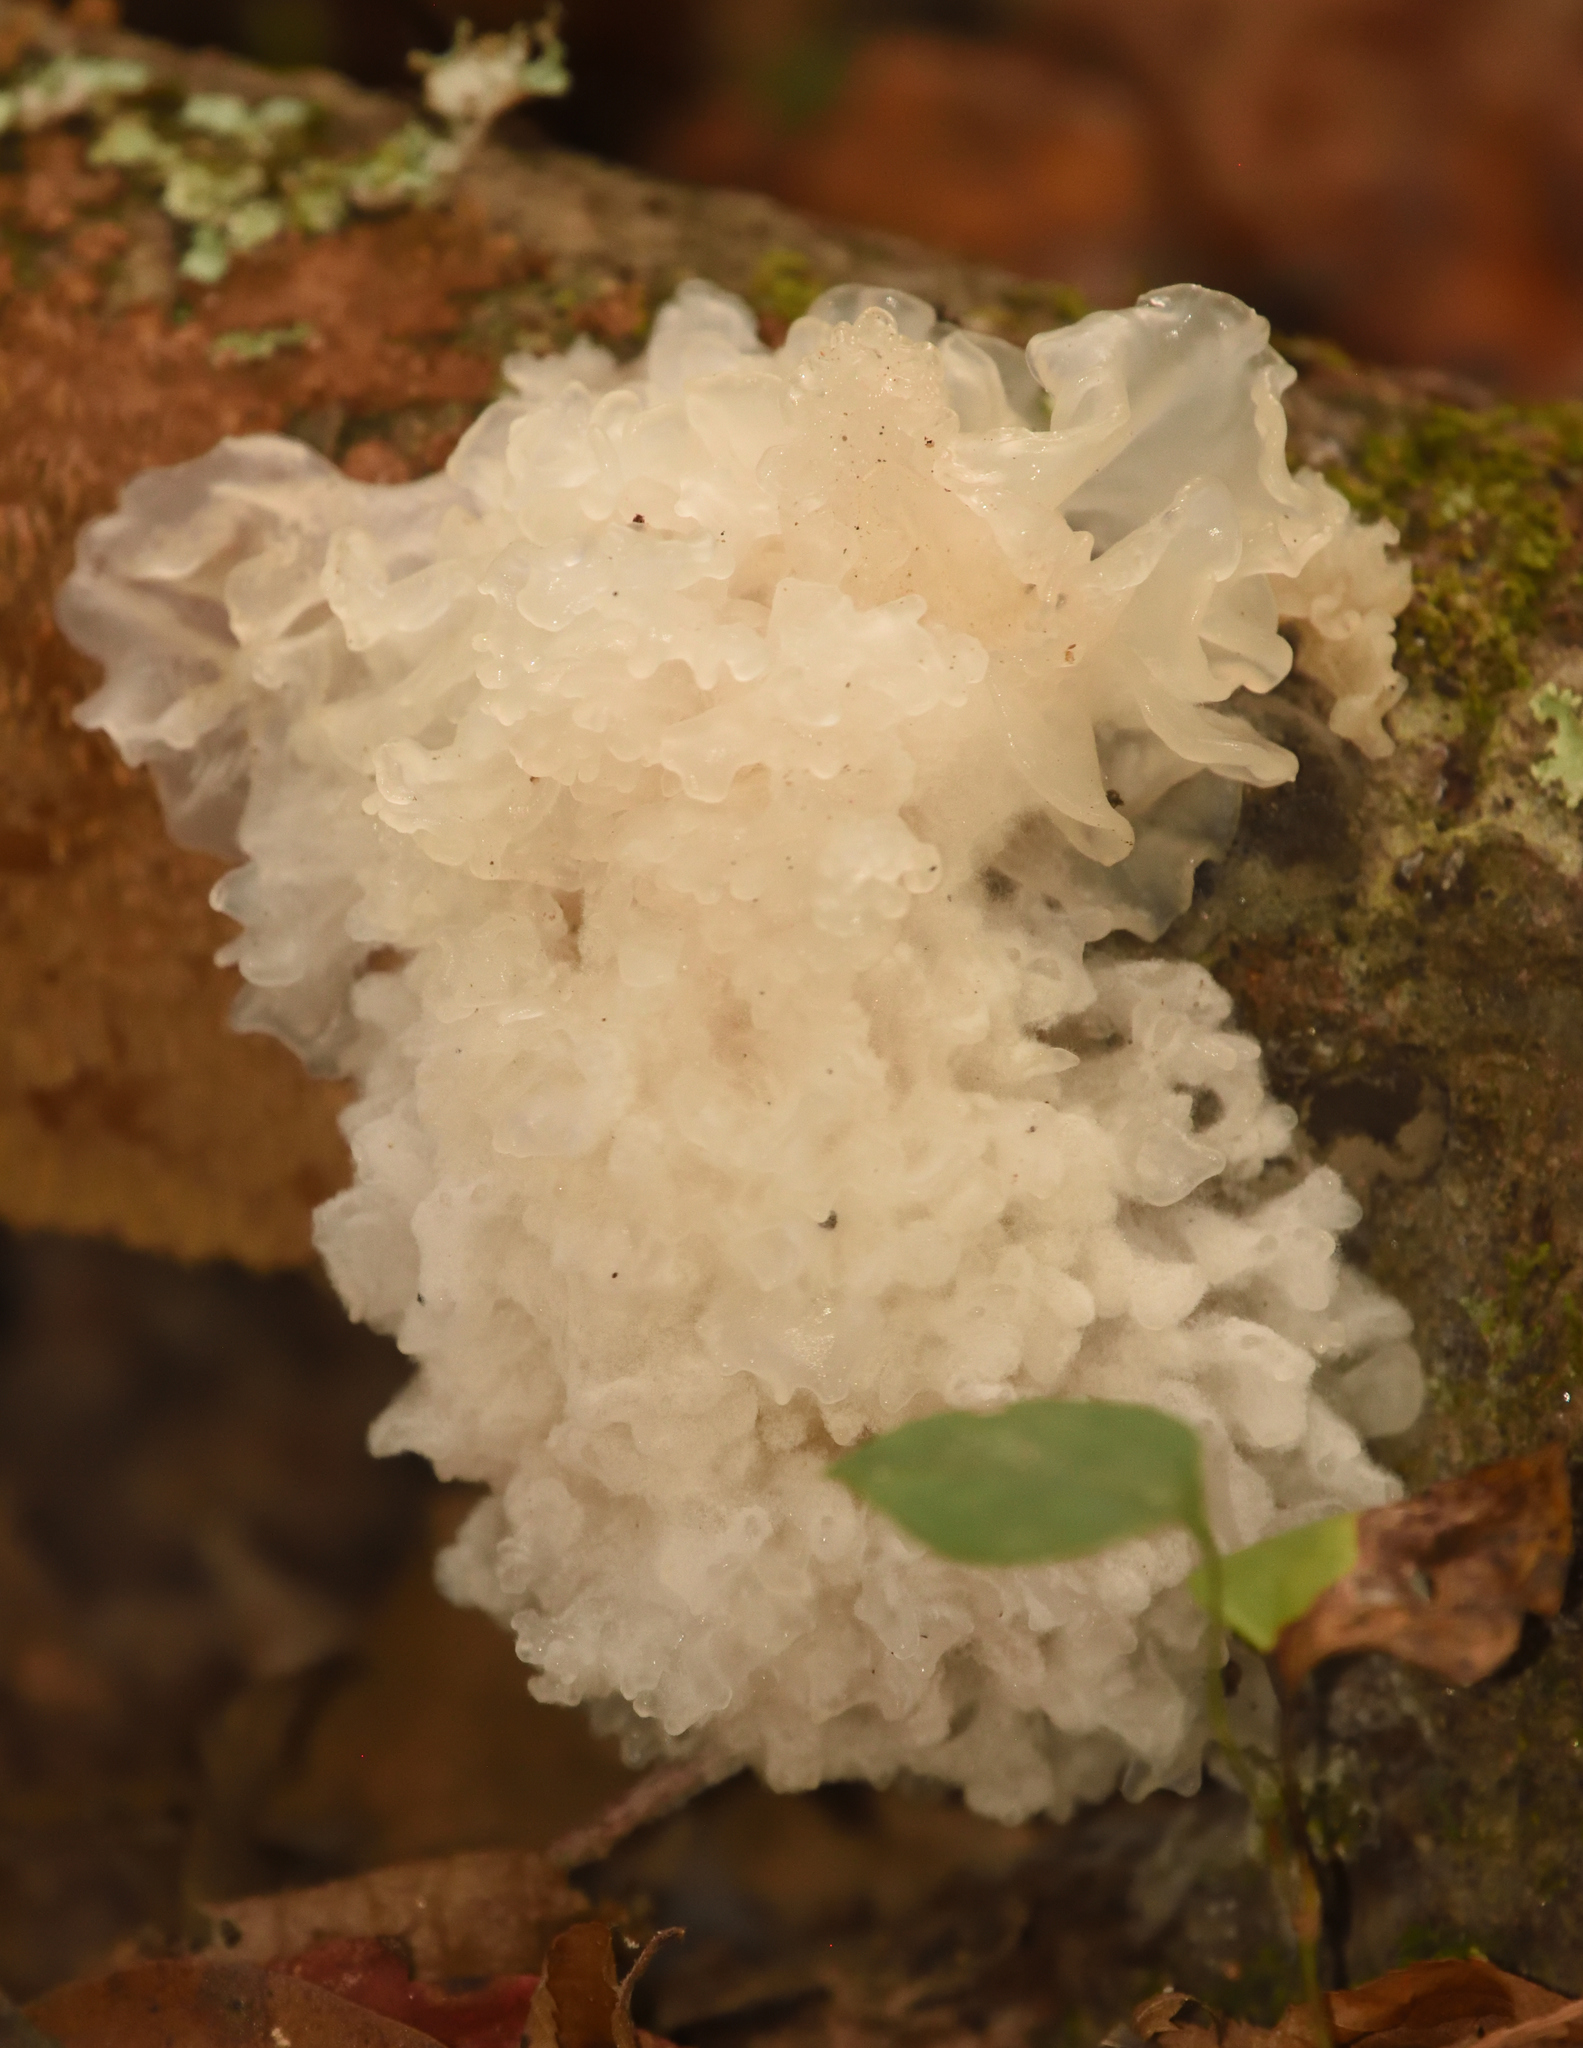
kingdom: Fungi
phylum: Basidiomycota
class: Tremellomycetes
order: Tremellales
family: Tremellaceae
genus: Tremella
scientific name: Tremella fuciformis
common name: Snow fungus
